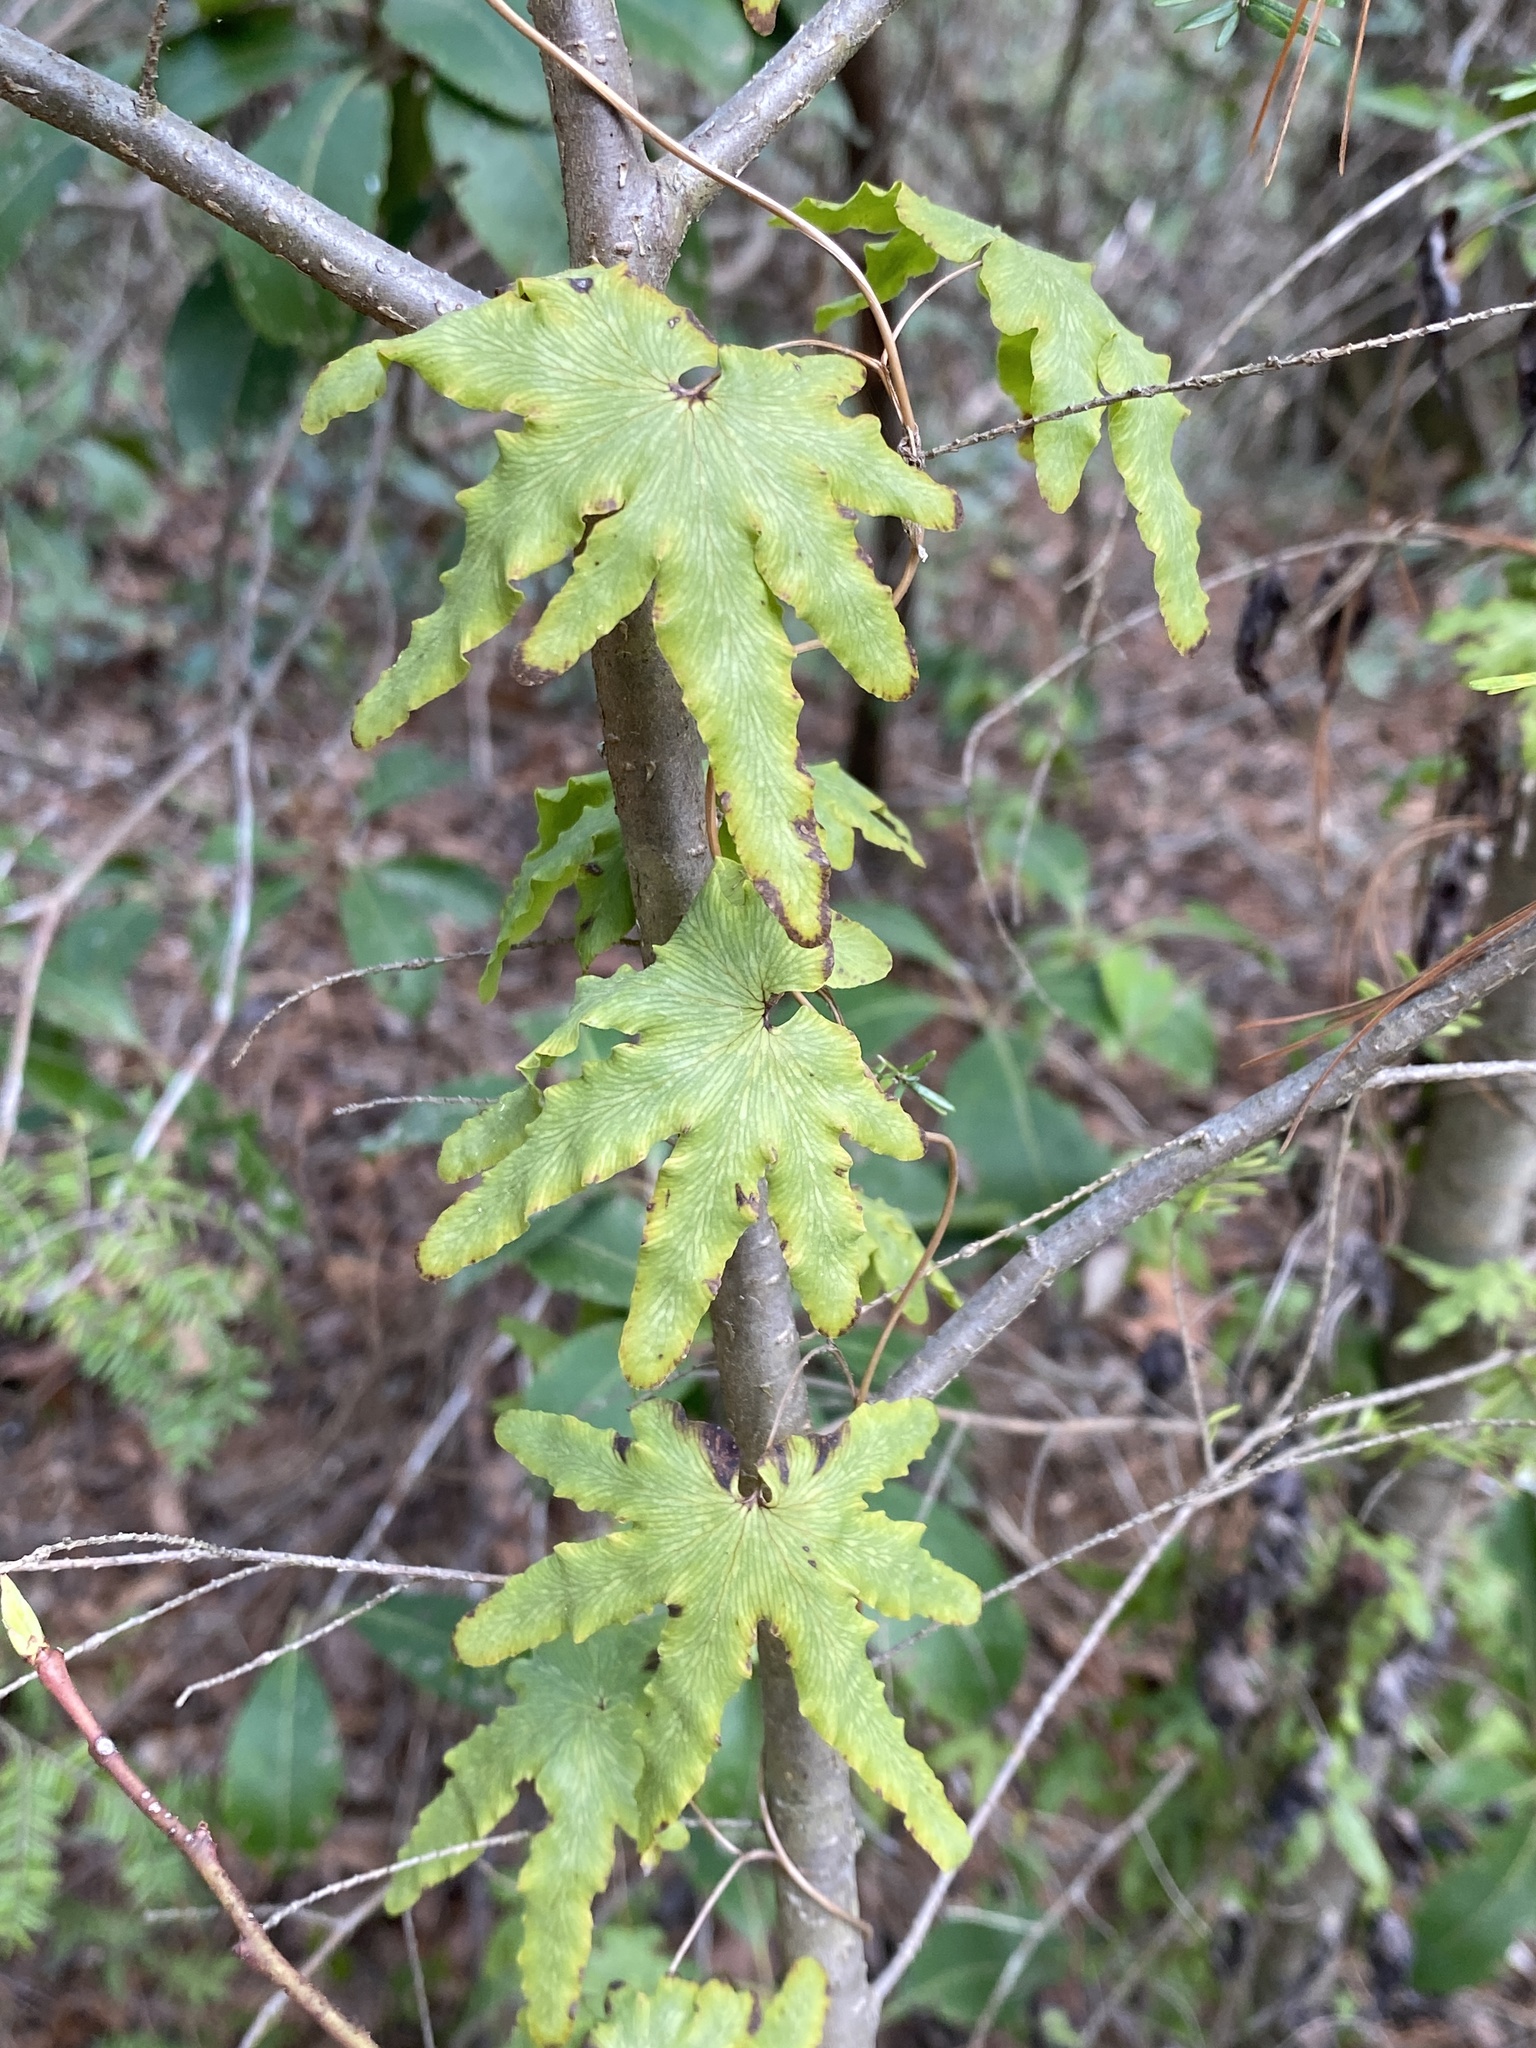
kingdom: Plantae
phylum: Tracheophyta
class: Polypodiopsida
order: Schizaeales
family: Lygodiaceae
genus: Lygodium
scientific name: Lygodium palmatum
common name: American climbing fern
